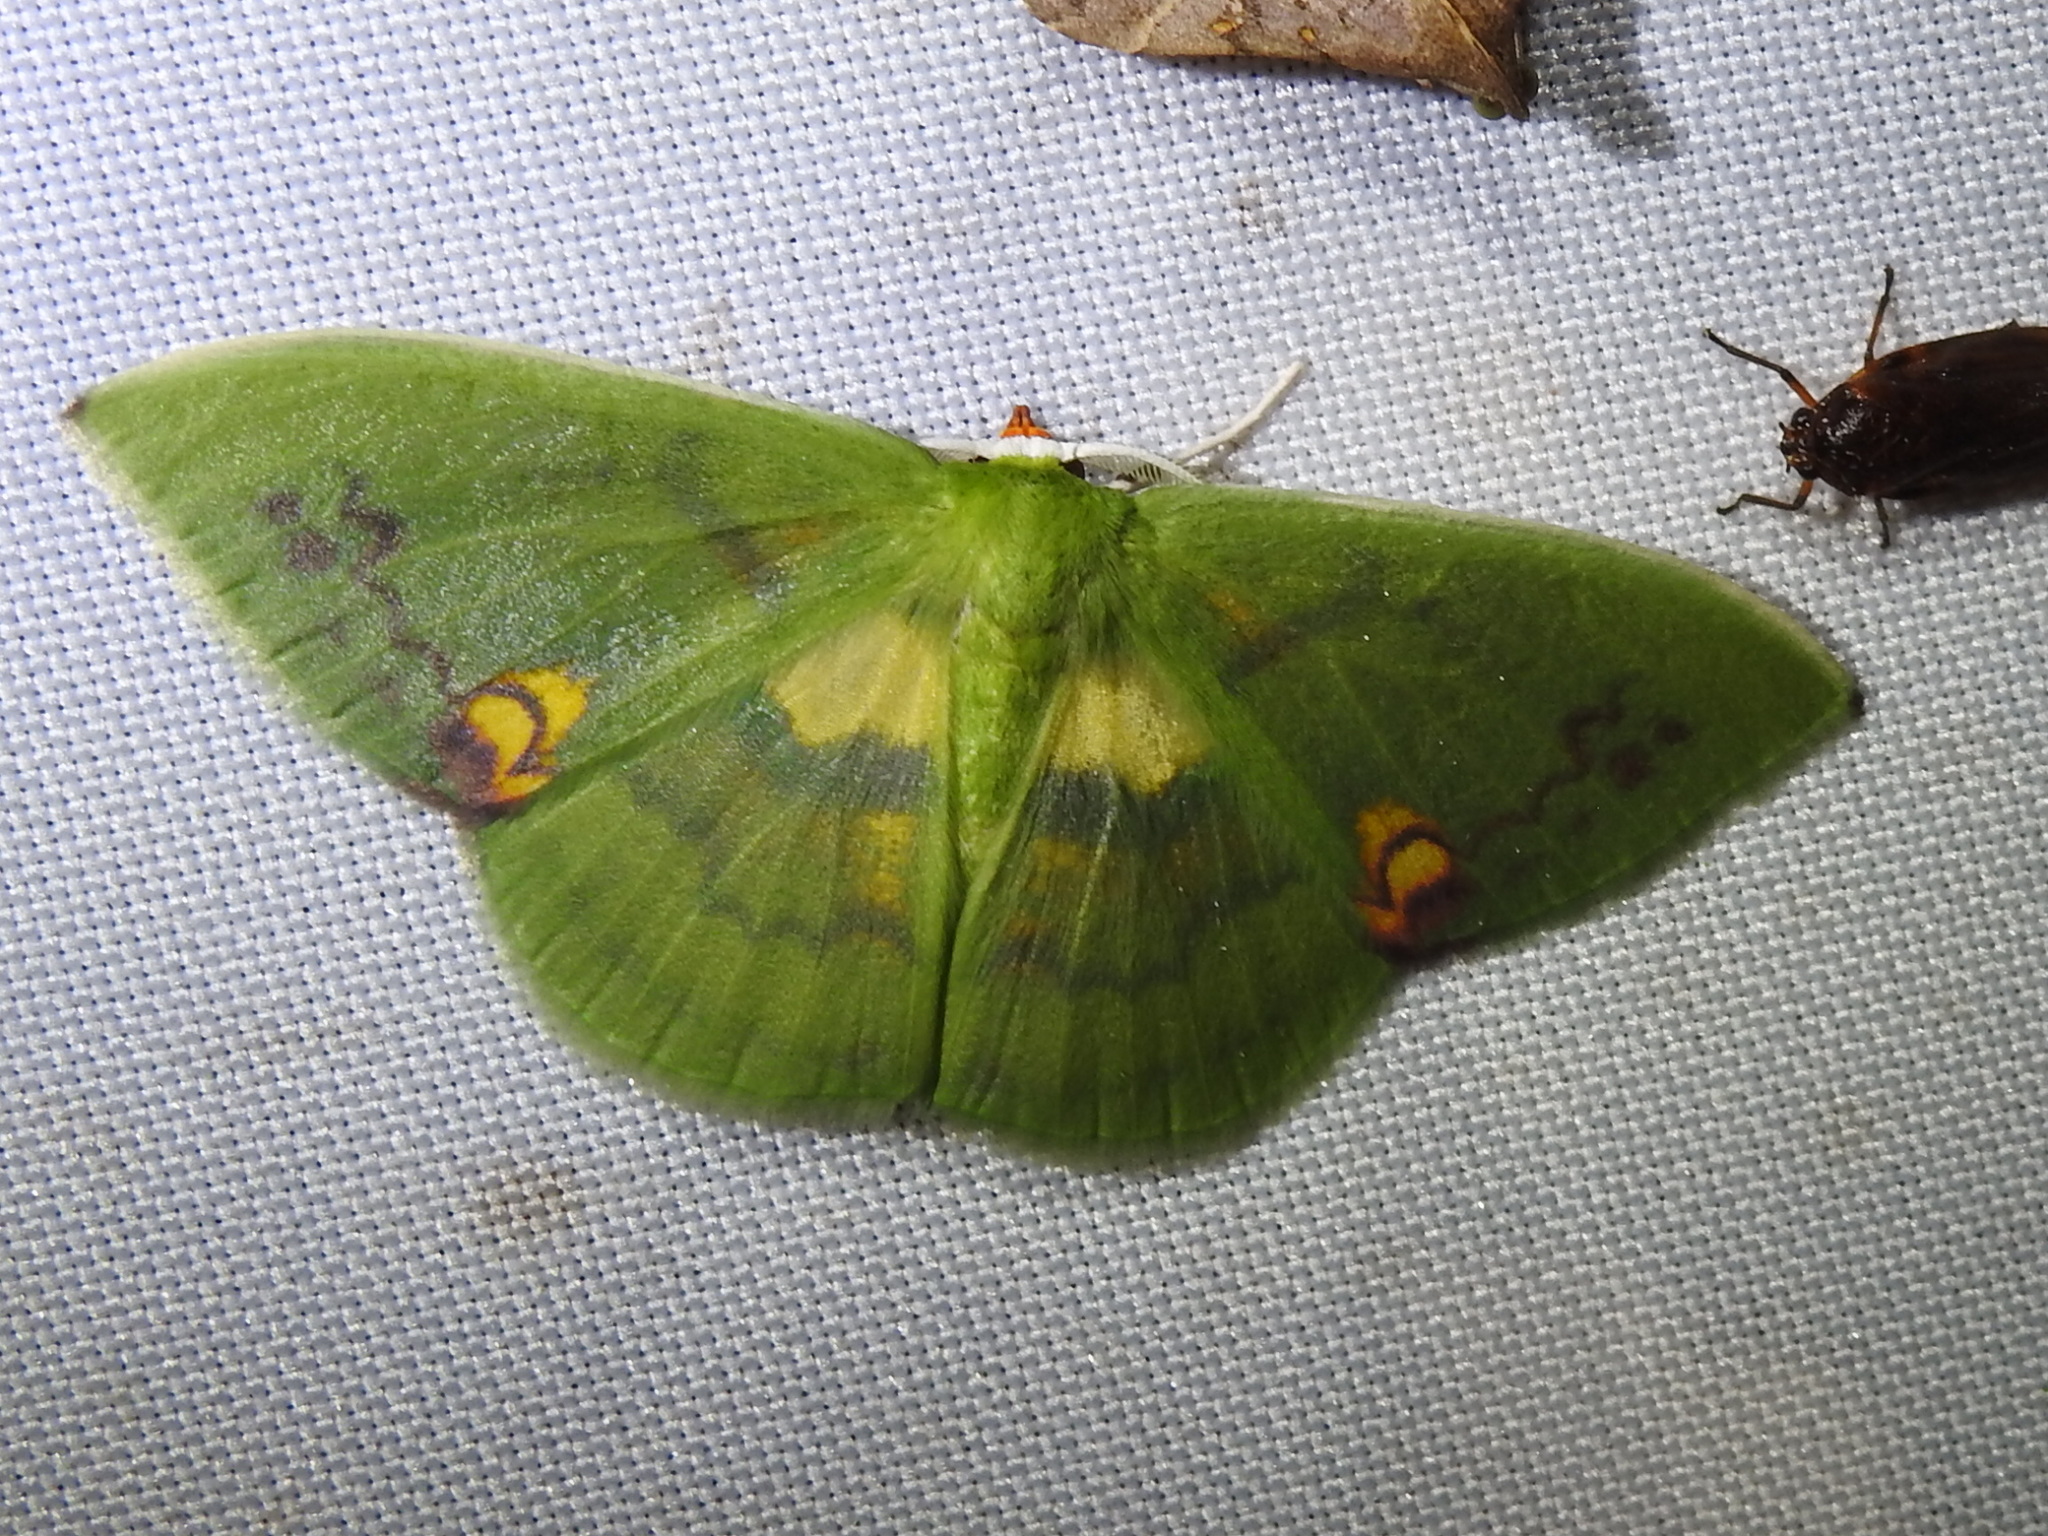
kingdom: Animalia
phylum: Arthropoda
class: Insecta
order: Lepidoptera
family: Geometridae
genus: Rhodochlora
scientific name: Rhodochlora brunneipalpis
